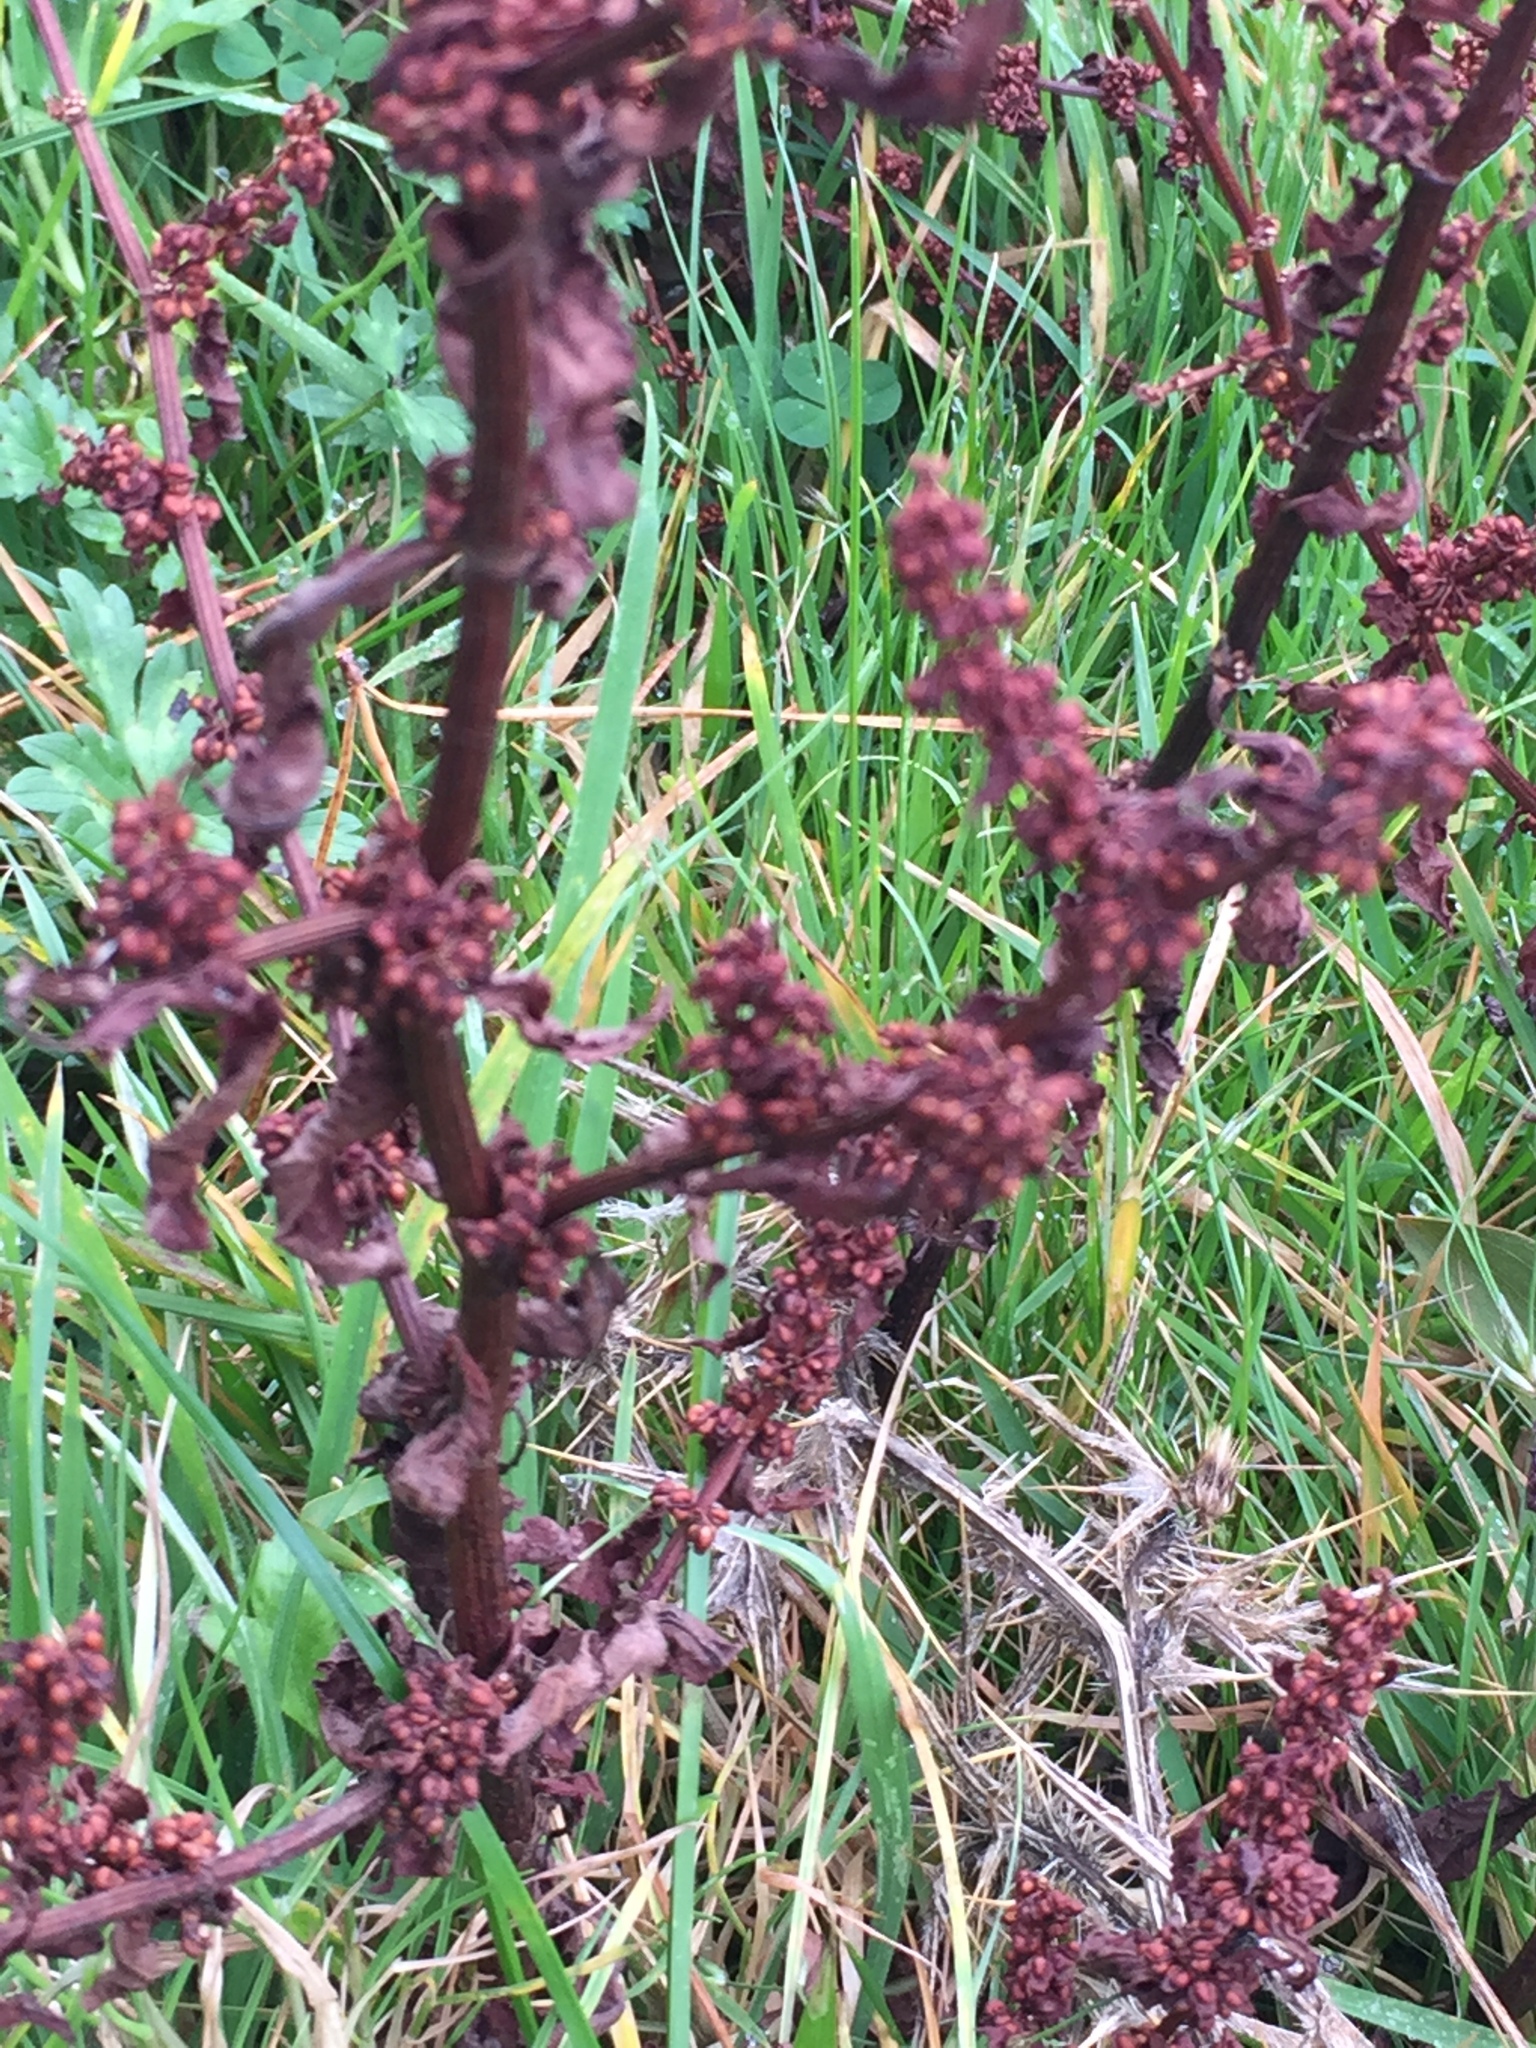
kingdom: Plantae
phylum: Tracheophyta
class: Magnoliopsida
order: Caryophyllales
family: Polygonaceae
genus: Rumex
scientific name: Rumex conglomeratus
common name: Clustered dock
